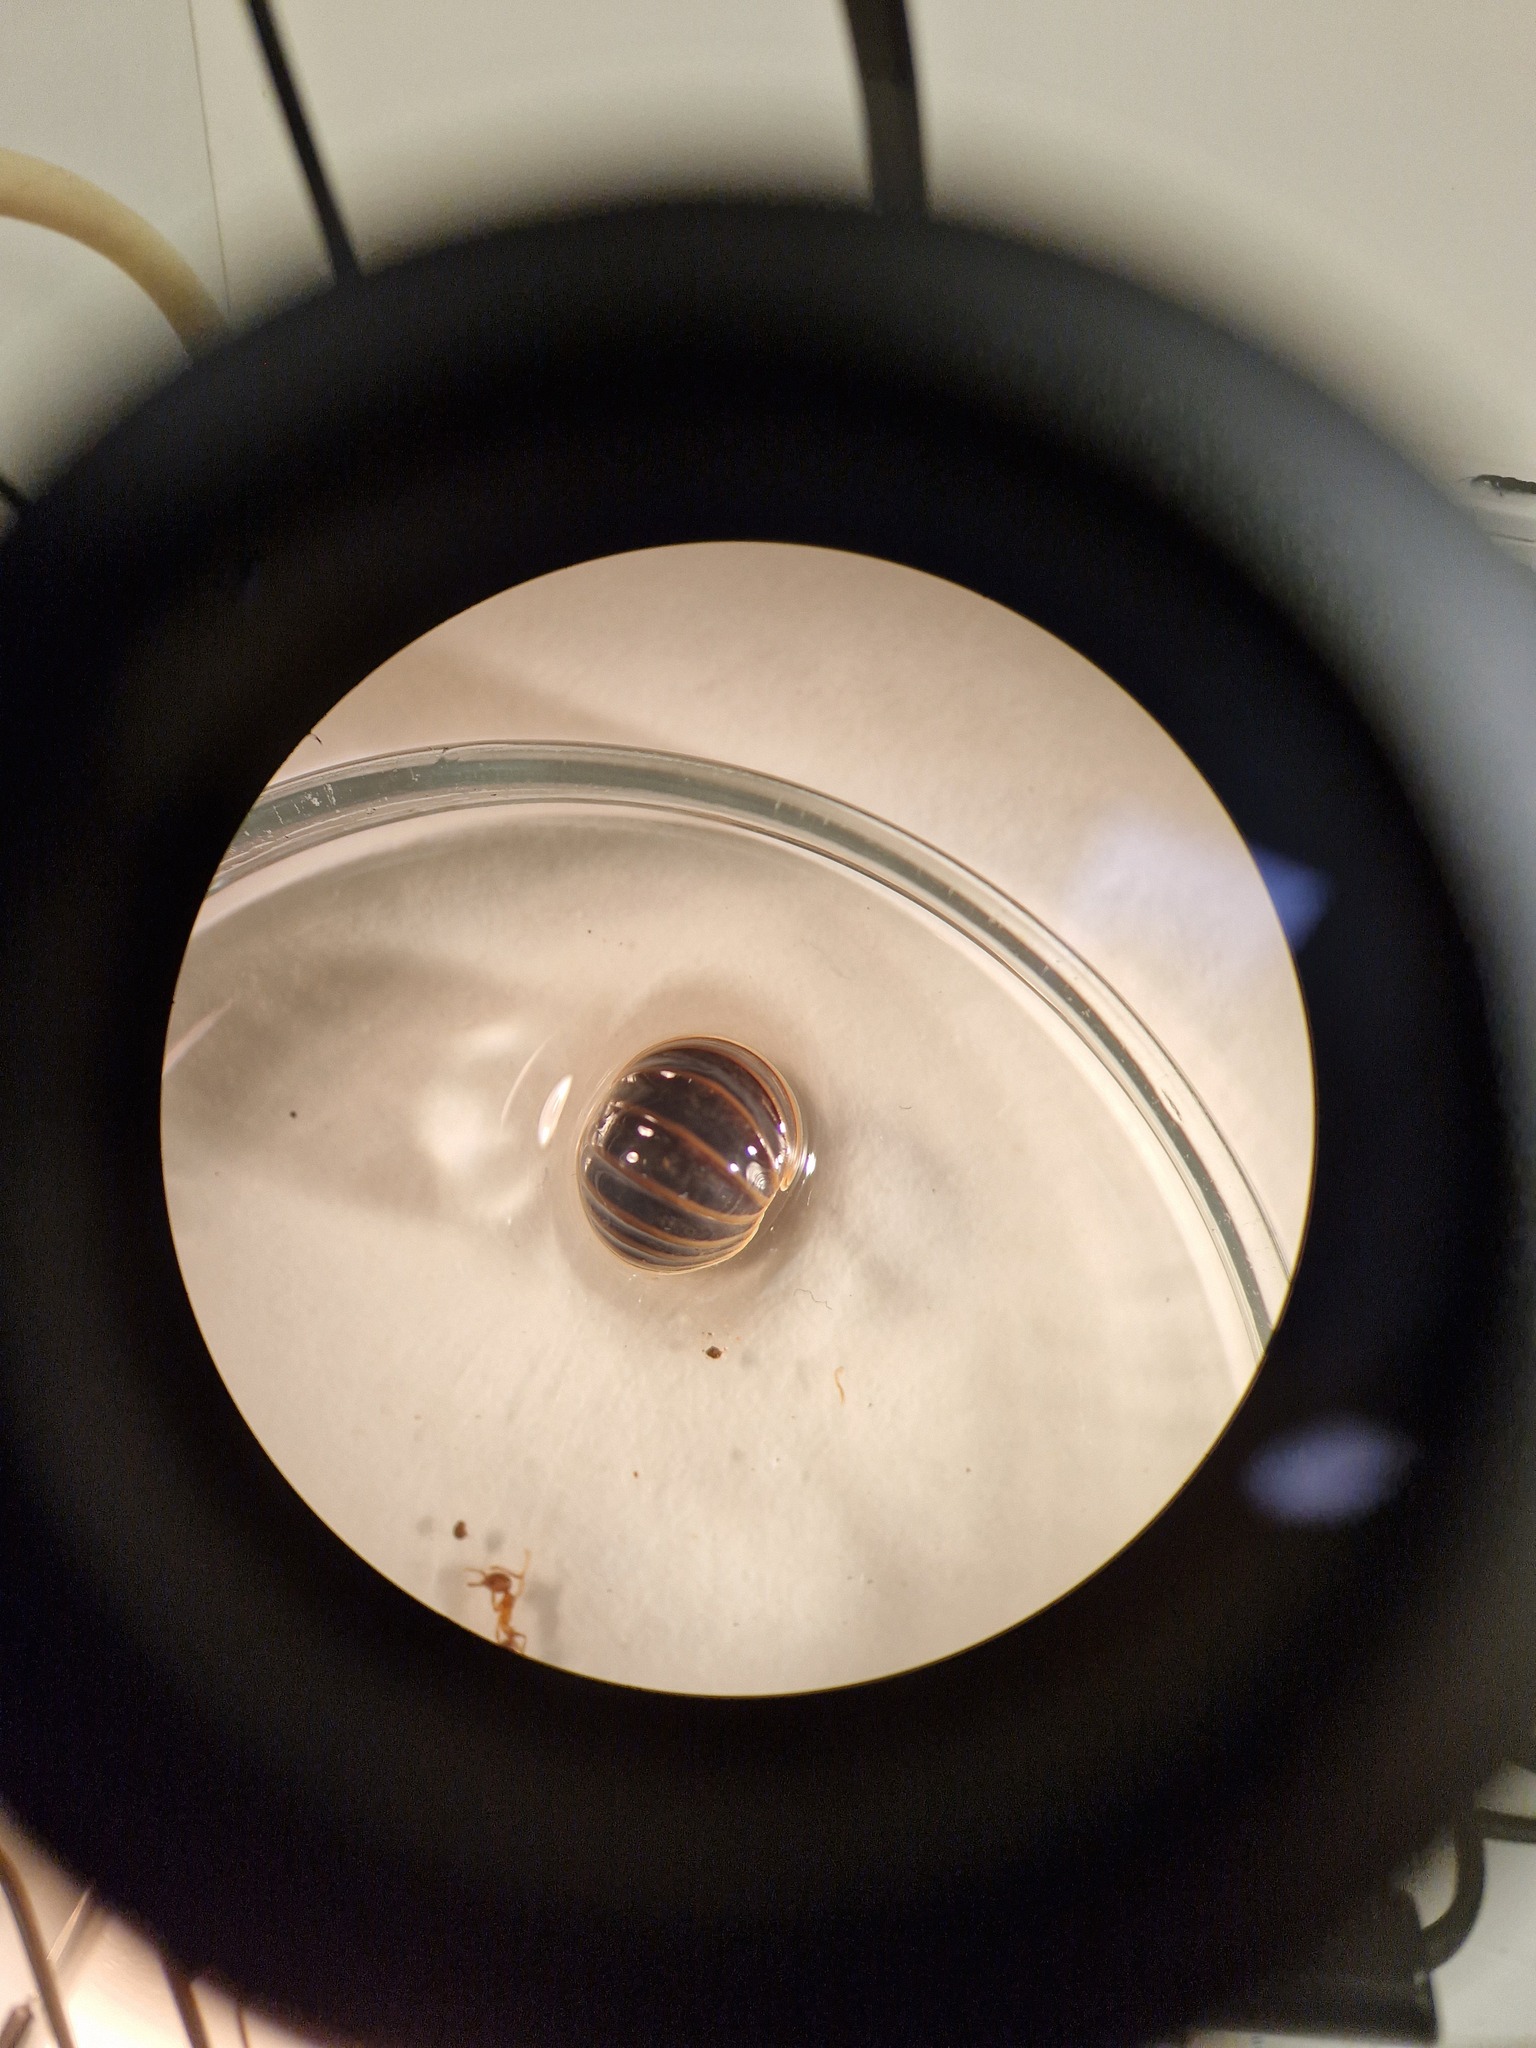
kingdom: Animalia
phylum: Arthropoda
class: Diplopoda
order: Glomerida
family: Glomeridae
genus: Glomeris
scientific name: Glomeris marginata
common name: Bordered pill millipede
